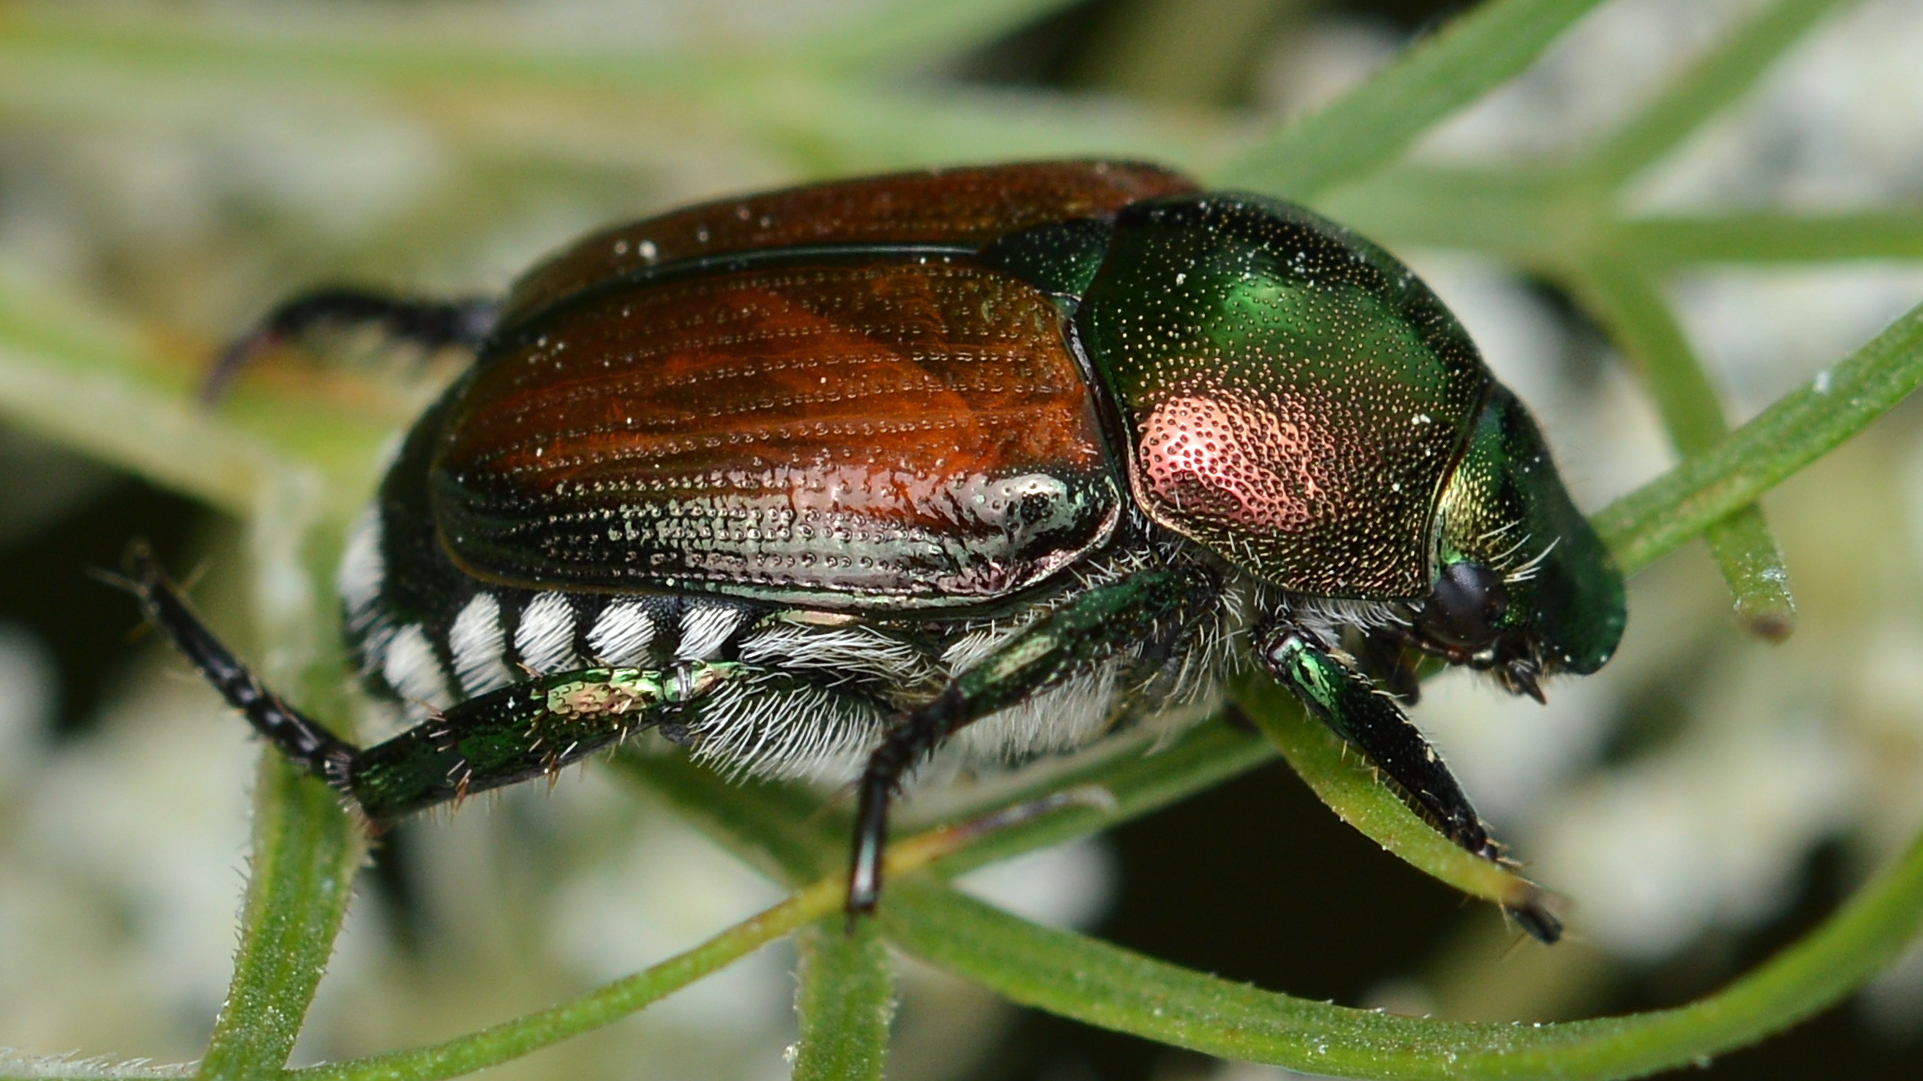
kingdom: Animalia
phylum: Arthropoda
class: Insecta
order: Coleoptera
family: Scarabaeidae
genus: Popillia
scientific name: Popillia japonica
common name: Japanese beetle
